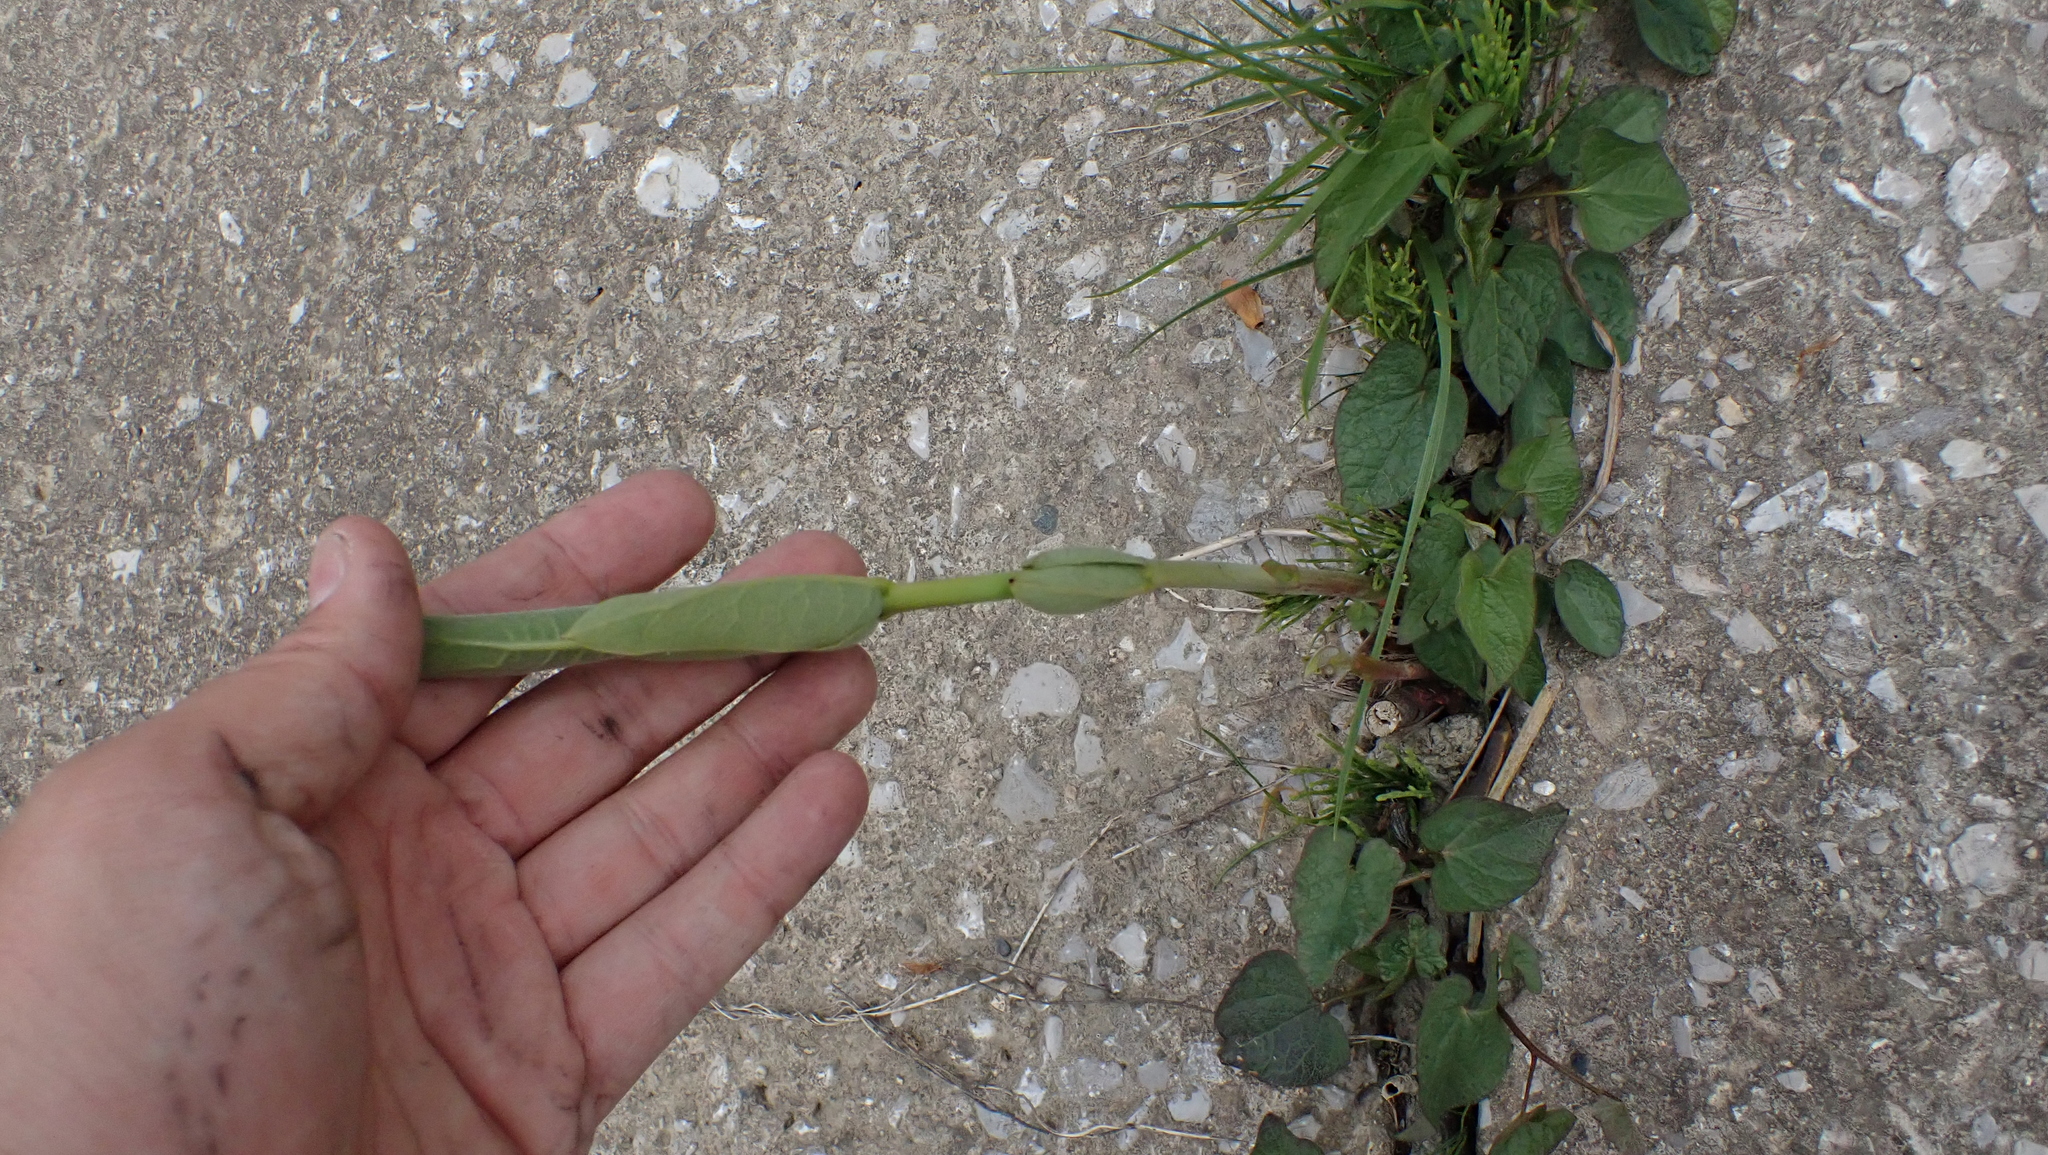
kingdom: Plantae
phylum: Tracheophyta
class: Magnoliopsida
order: Gentianales
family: Apocynaceae
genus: Apocynum
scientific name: Apocynum cannabinum
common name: Hemp dogbane
